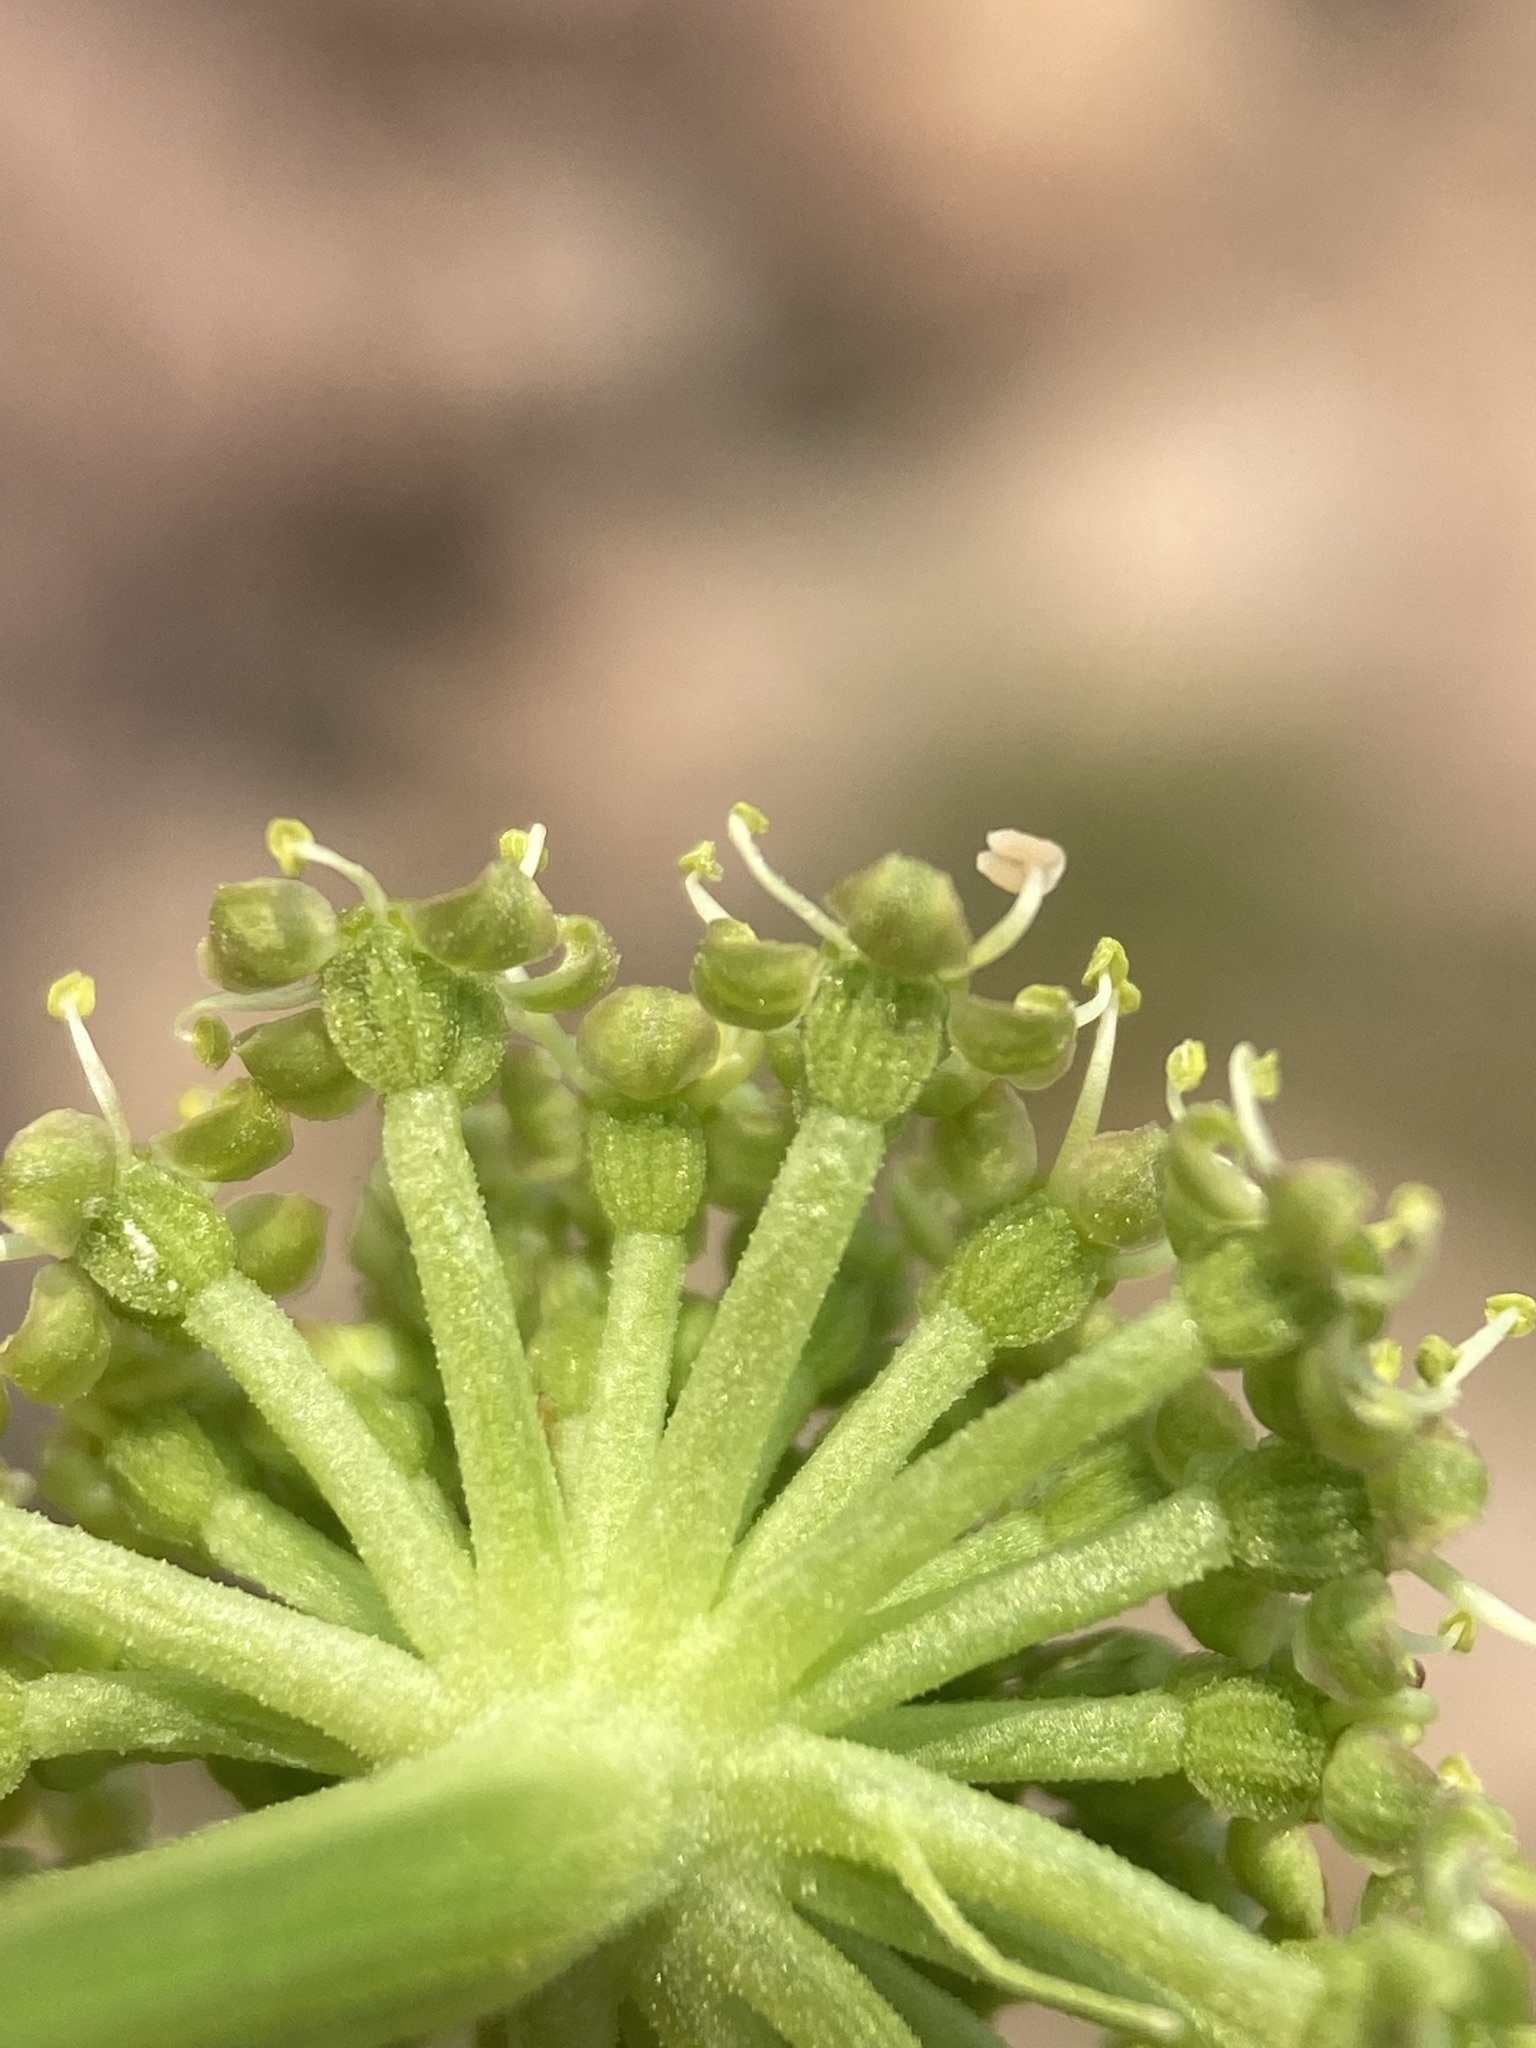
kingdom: Plantae
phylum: Tracheophyta
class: Magnoliopsida
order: Apiales
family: Apiaceae
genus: Angelica
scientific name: Angelica roseana
